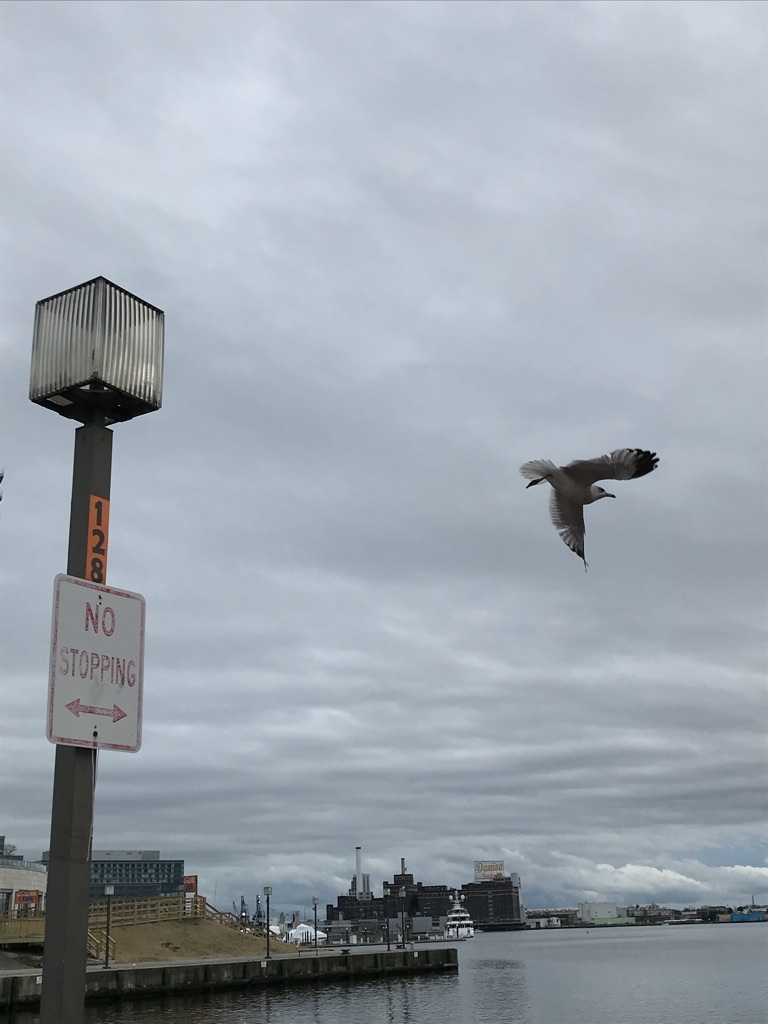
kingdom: Animalia
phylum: Chordata
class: Aves
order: Charadriiformes
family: Laridae
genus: Larus
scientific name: Larus delawarensis
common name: Ring-billed gull
